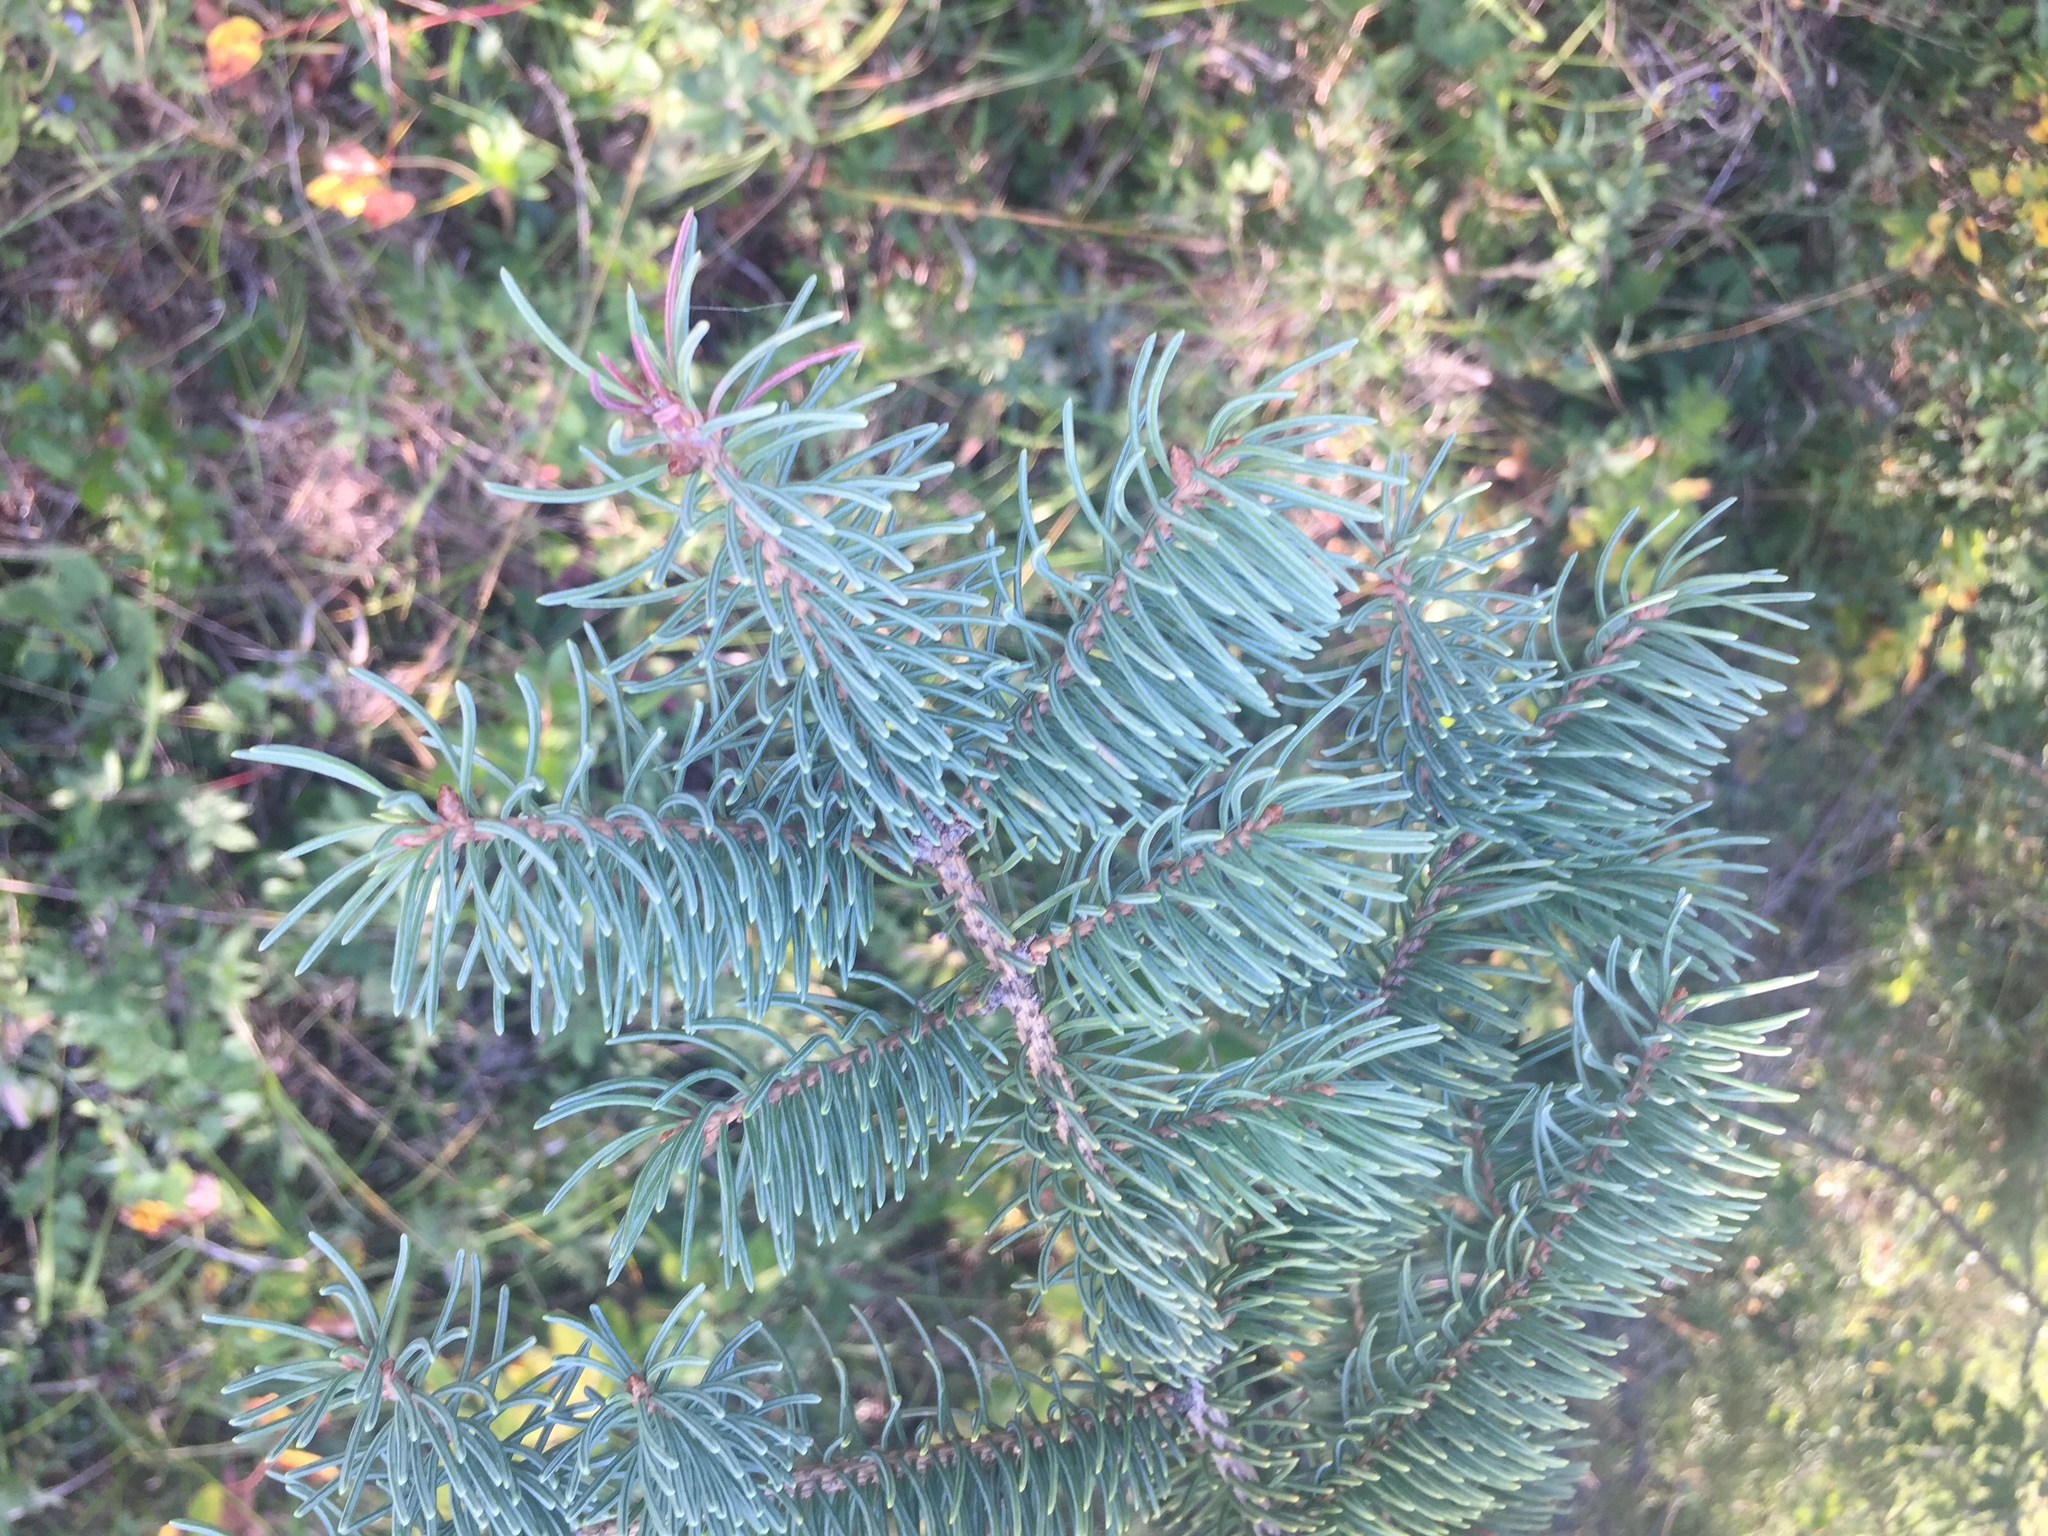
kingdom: Plantae
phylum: Tracheophyta
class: Pinopsida
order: Pinales
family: Pinaceae
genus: Picea
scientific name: Picea glauca
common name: White spruce
